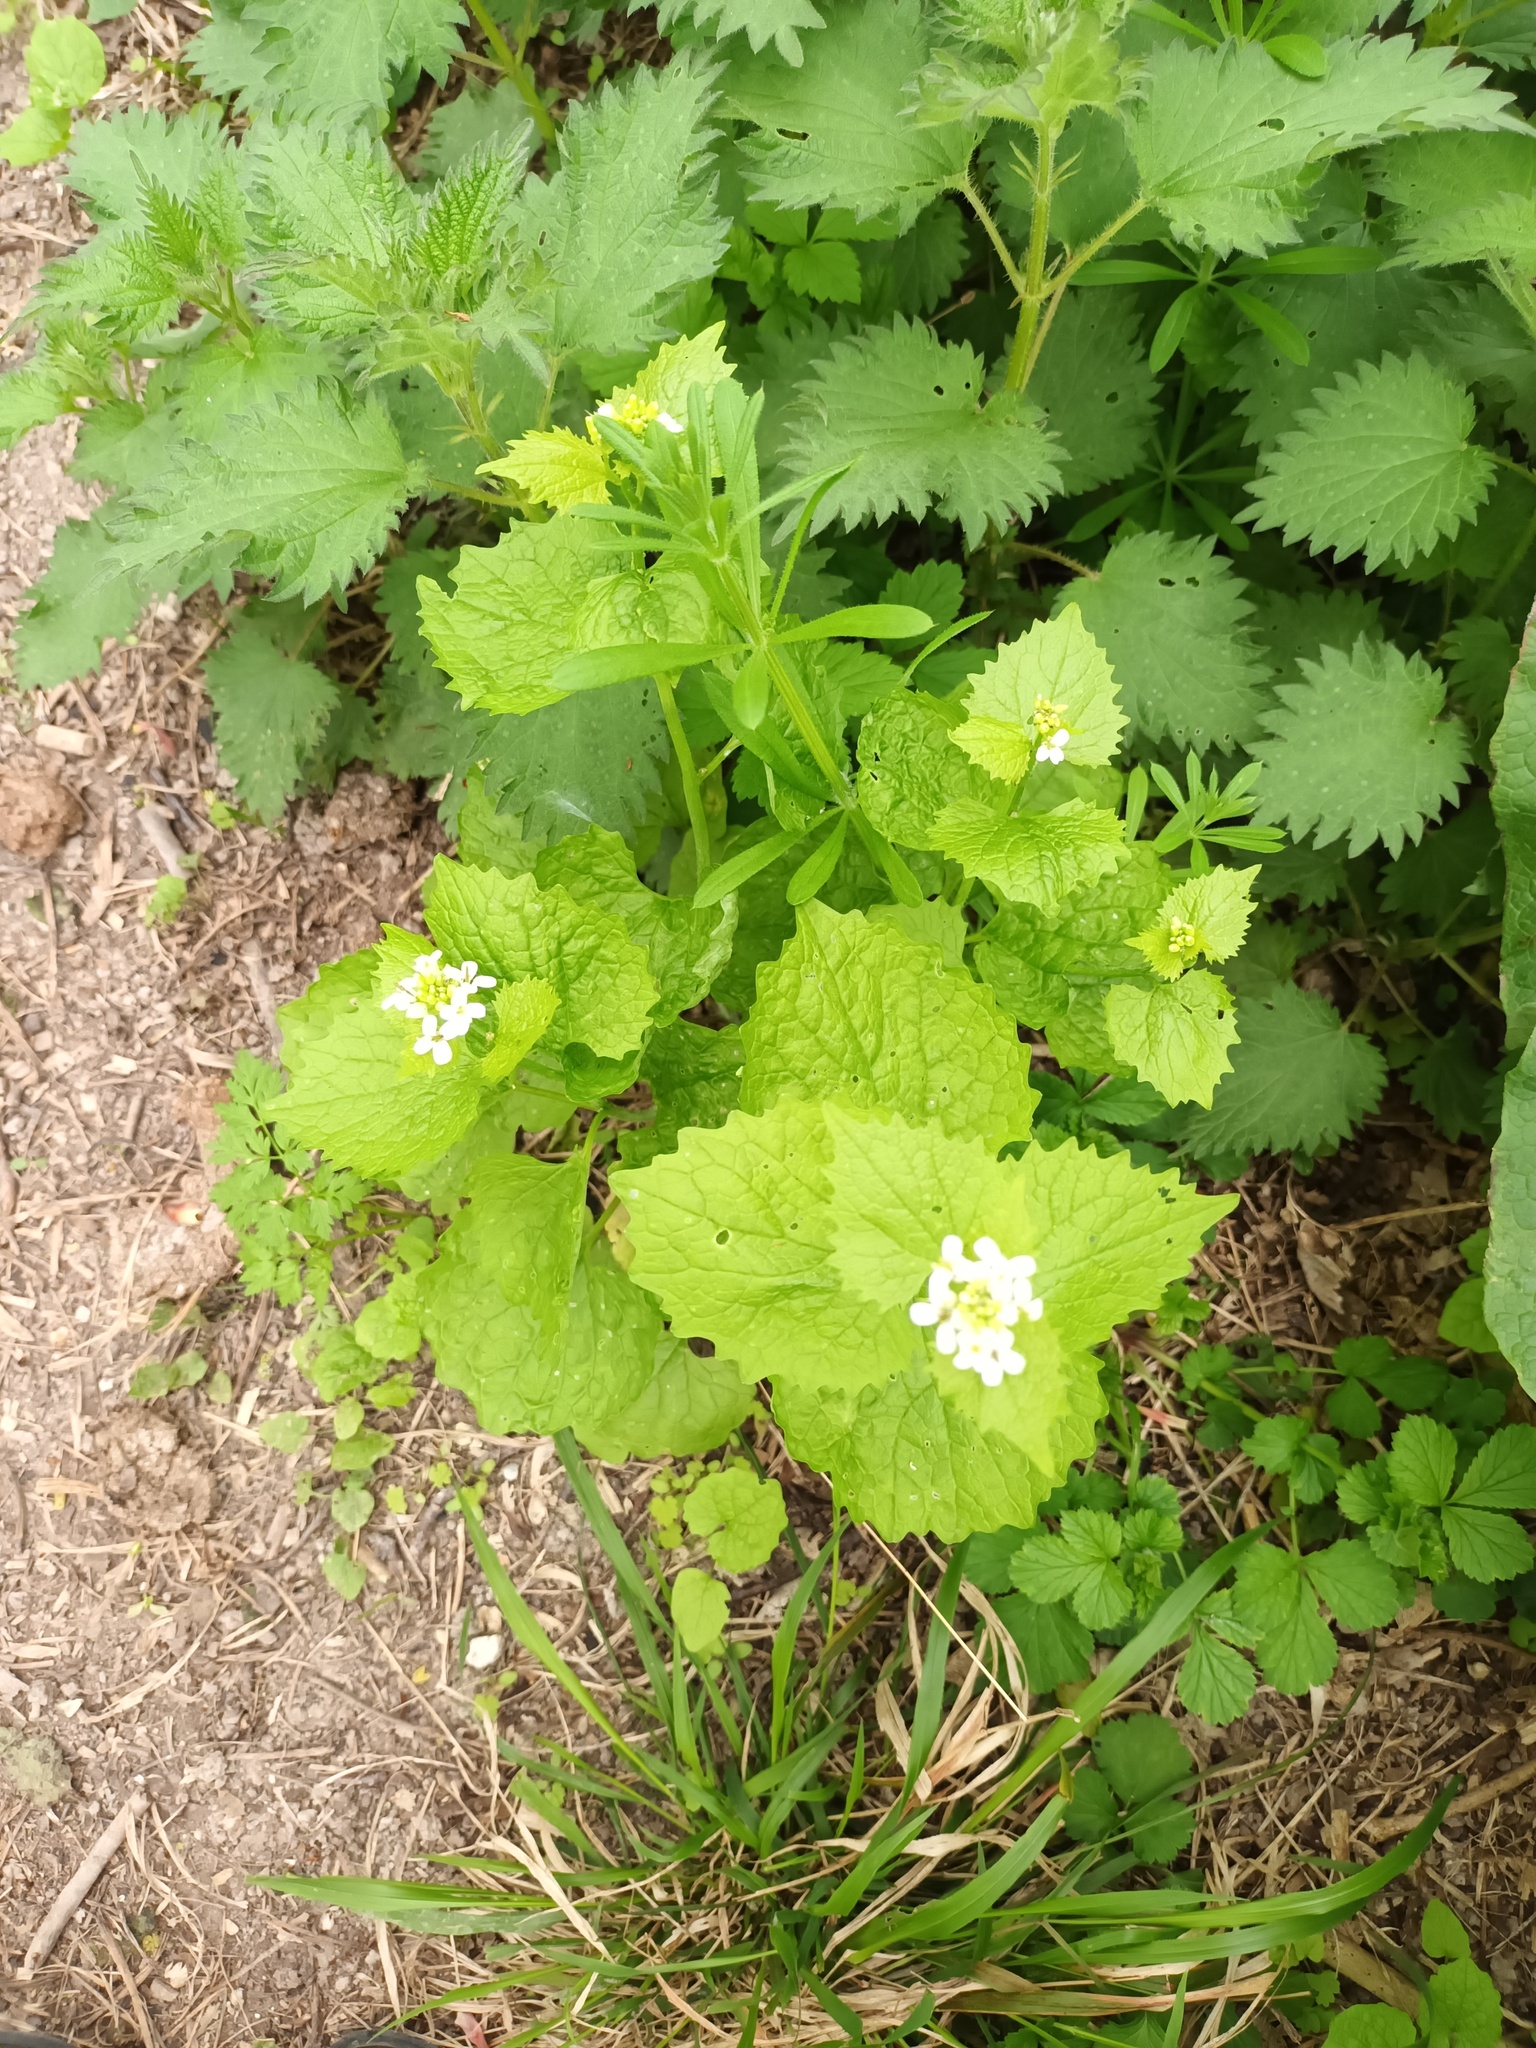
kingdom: Plantae
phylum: Tracheophyta
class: Magnoliopsida
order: Brassicales
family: Brassicaceae
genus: Alliaria
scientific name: Alliaria petiolata
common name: Garlic mustard
